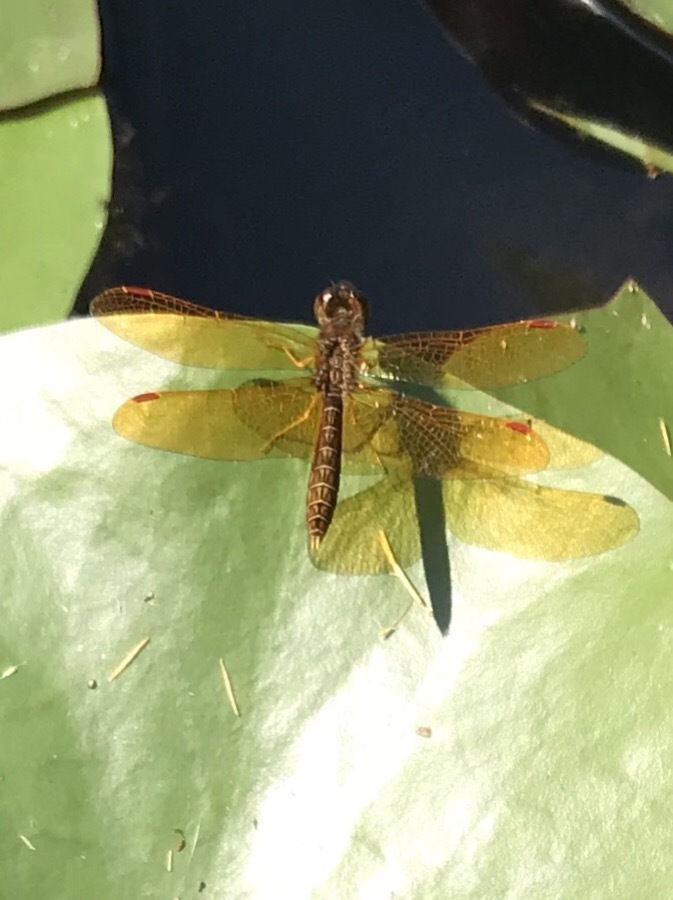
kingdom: Animalia
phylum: Arthropoda
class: Insecta
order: Odonata
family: Libellulidae
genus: Perithemis
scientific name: Perithemis tenera
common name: Eastern amberwing
